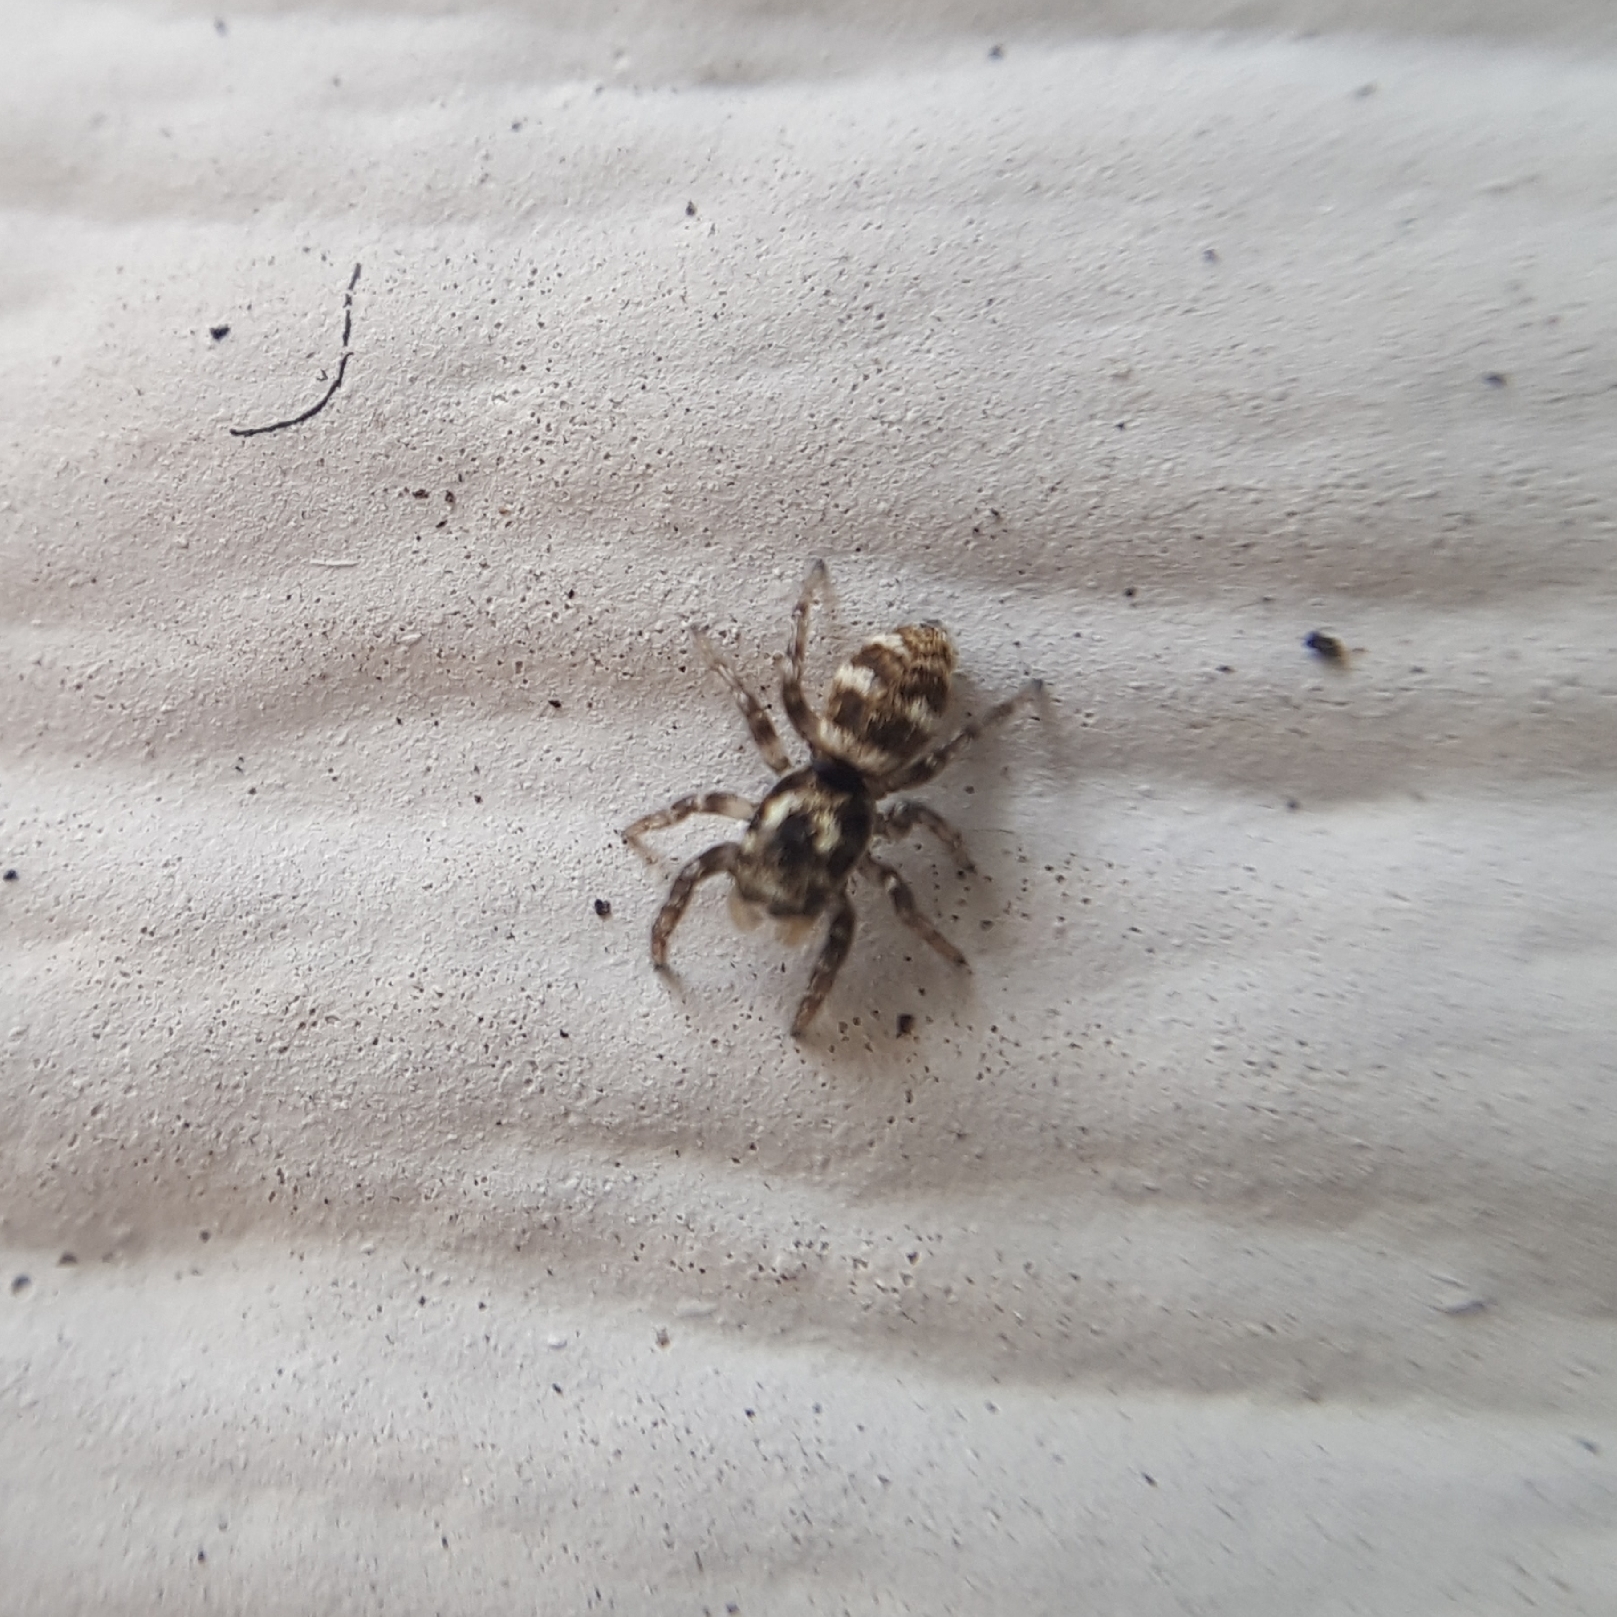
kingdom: Animalia
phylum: Arthropoda
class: Arachnida
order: Araneae
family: Salticidae
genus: Salticus
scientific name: Salticus scenicus
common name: Zebra jumper
